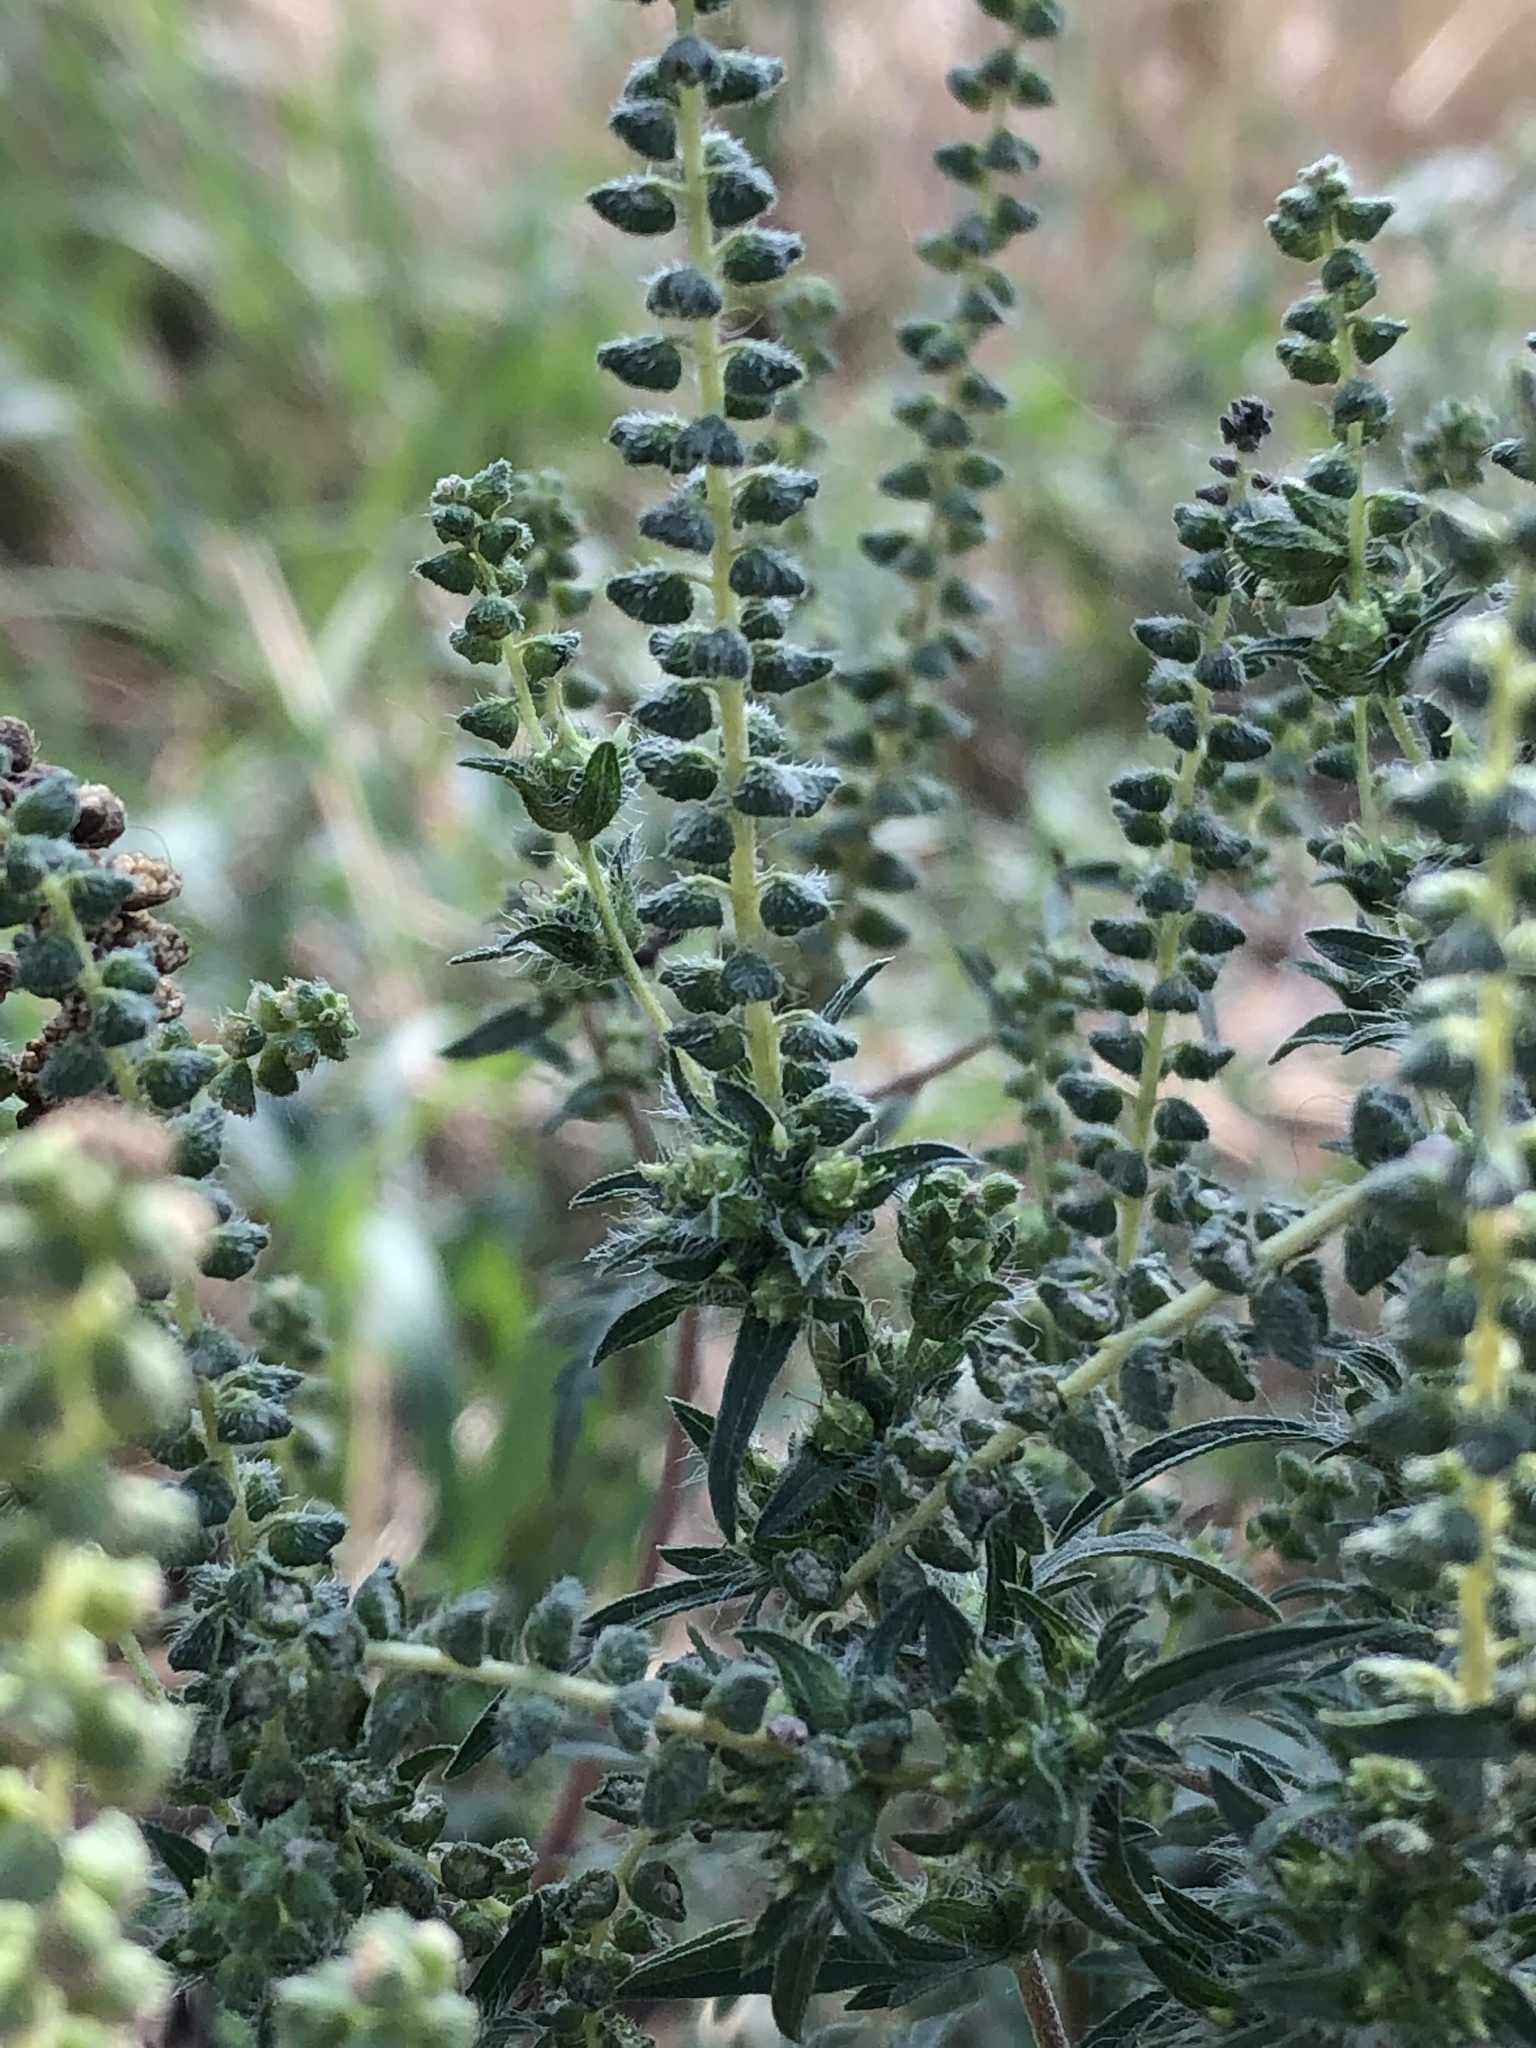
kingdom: Plantae
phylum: Tracheophyta
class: Magnoliopsida
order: Asterales
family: Asteraceae
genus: Ambrosia
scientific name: Ambrosia artemisiifolia
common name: Annual ragweed
